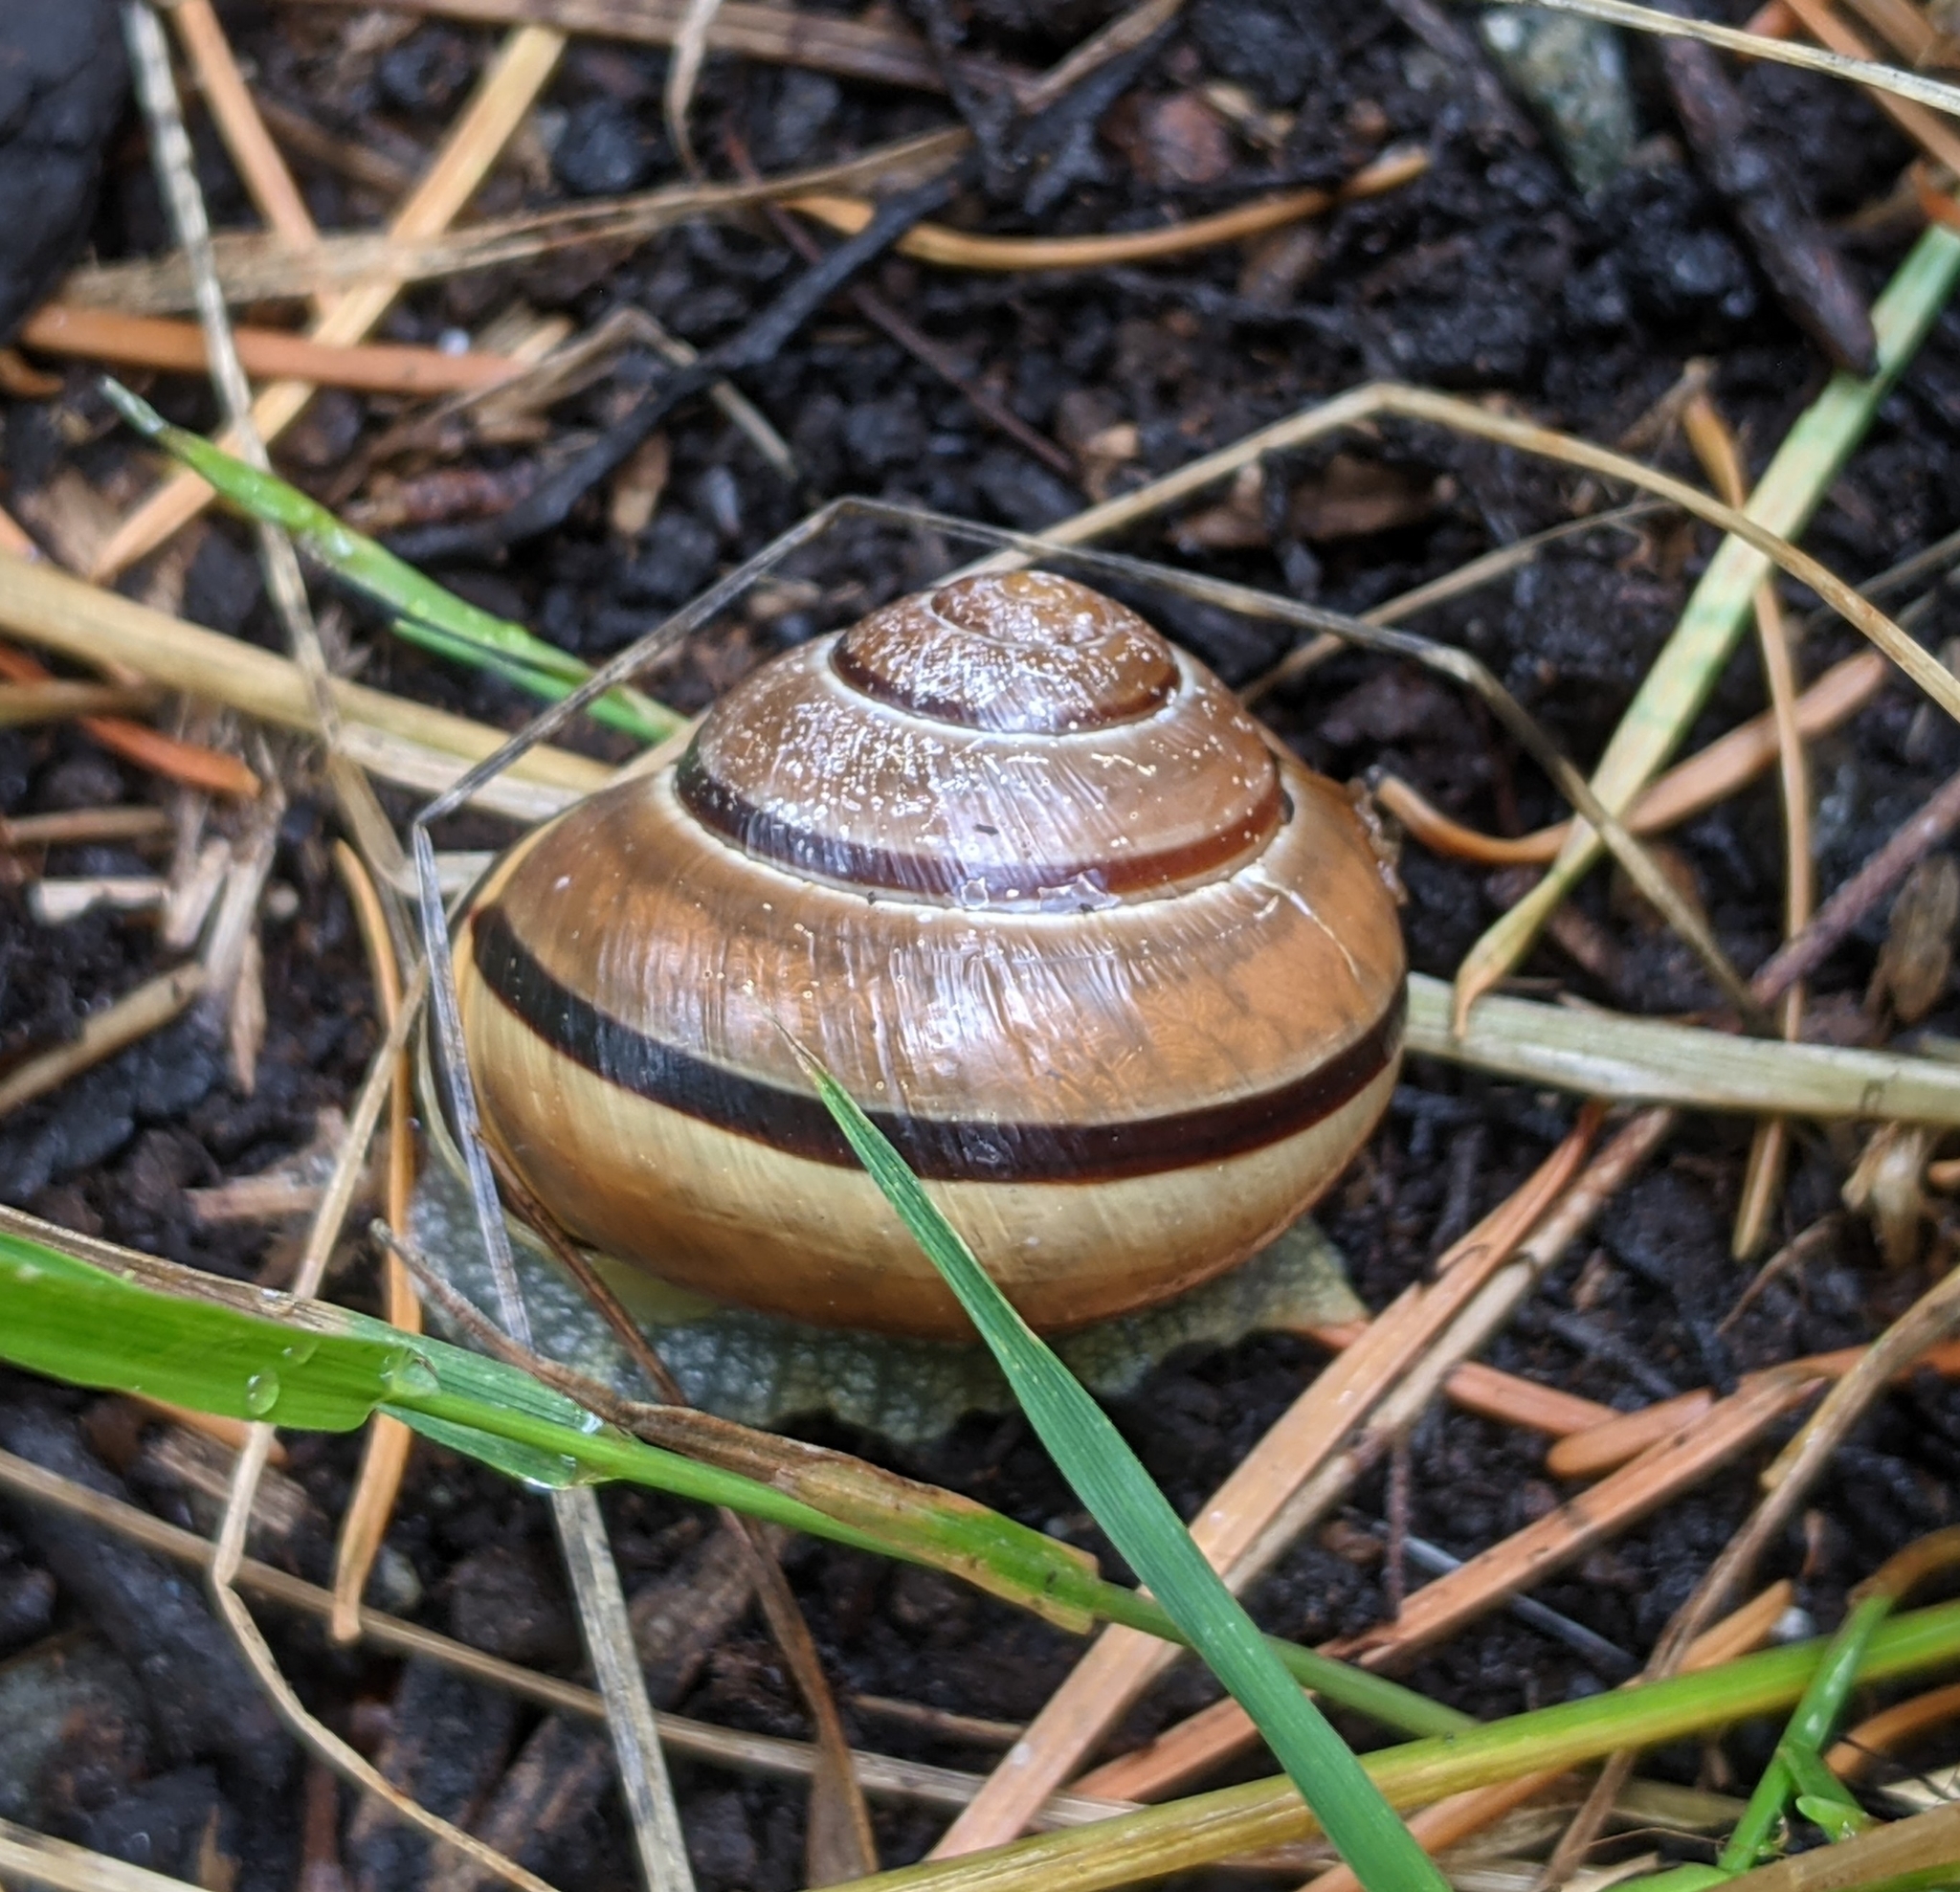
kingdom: Animalia
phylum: Mollusca
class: Gastropoda
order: Stylommatophora
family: Helicidae
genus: Cepaea
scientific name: Cepaea nemoralis
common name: Grovesnail
